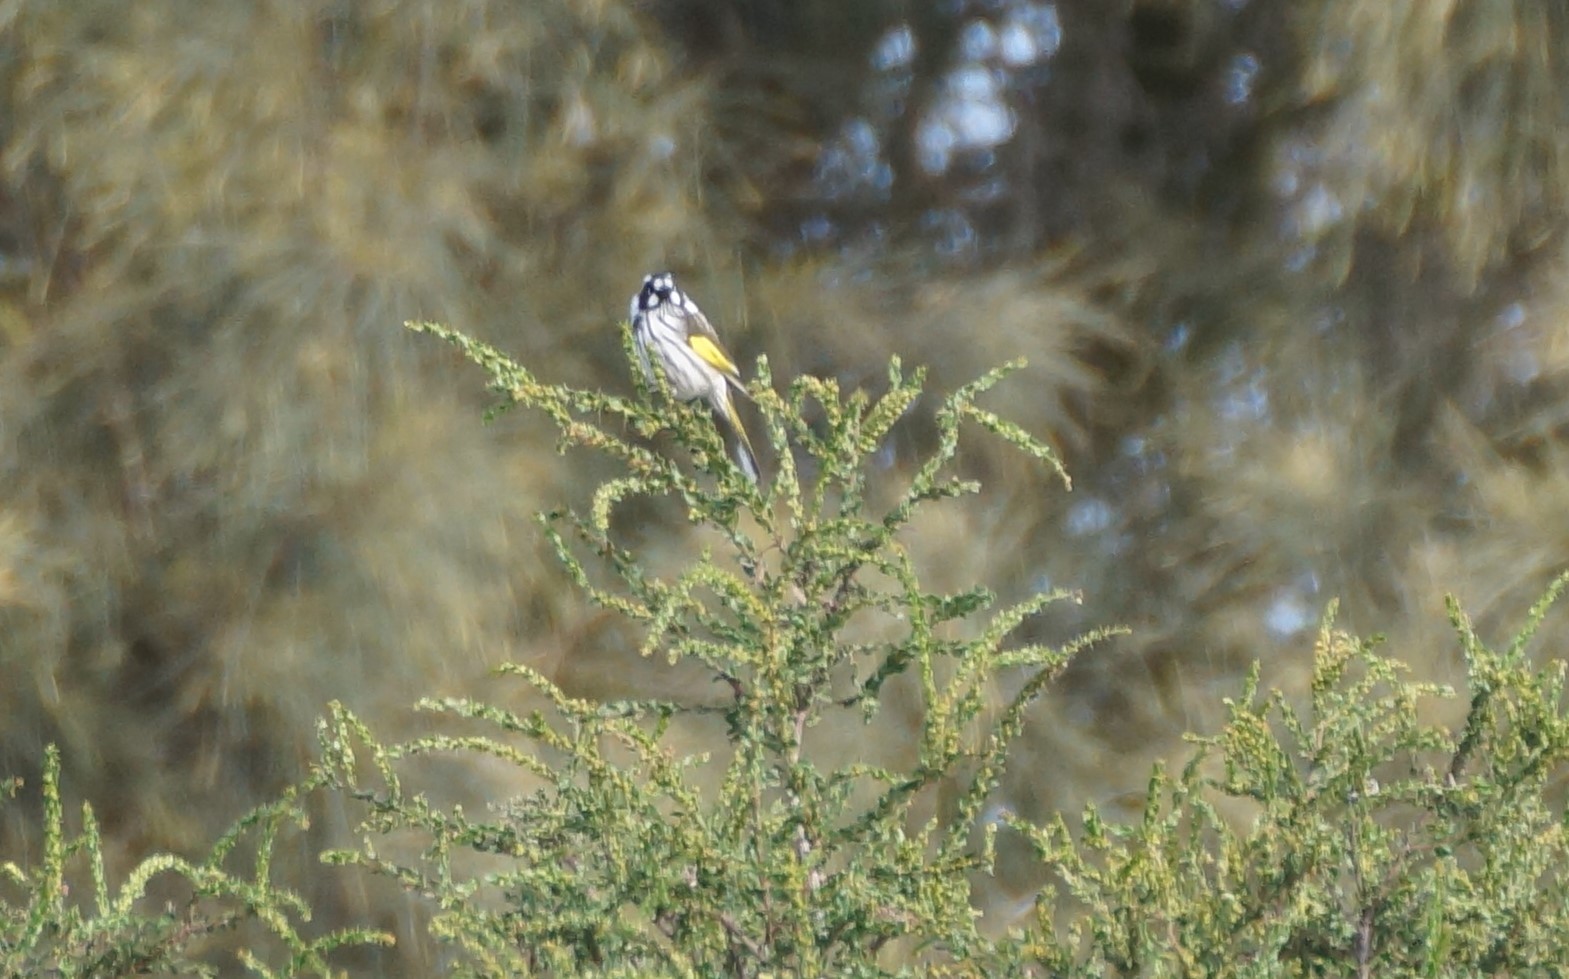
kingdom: Animalia
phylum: Chordata
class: Aves
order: Passeriformes
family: Meliphagidae
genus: Phylidonyris
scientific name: Phylidonyris novaehollandiae
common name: New holland honeyeater
